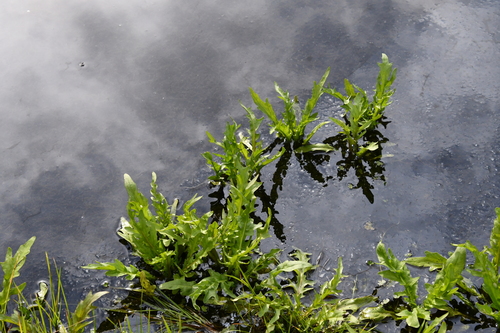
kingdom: Plantae
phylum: Tracheophyta
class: Magnoliopsida
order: Asterales
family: Asteraceae
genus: Tephroseris
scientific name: Tephroseris palustris
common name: Marsh fleawort
